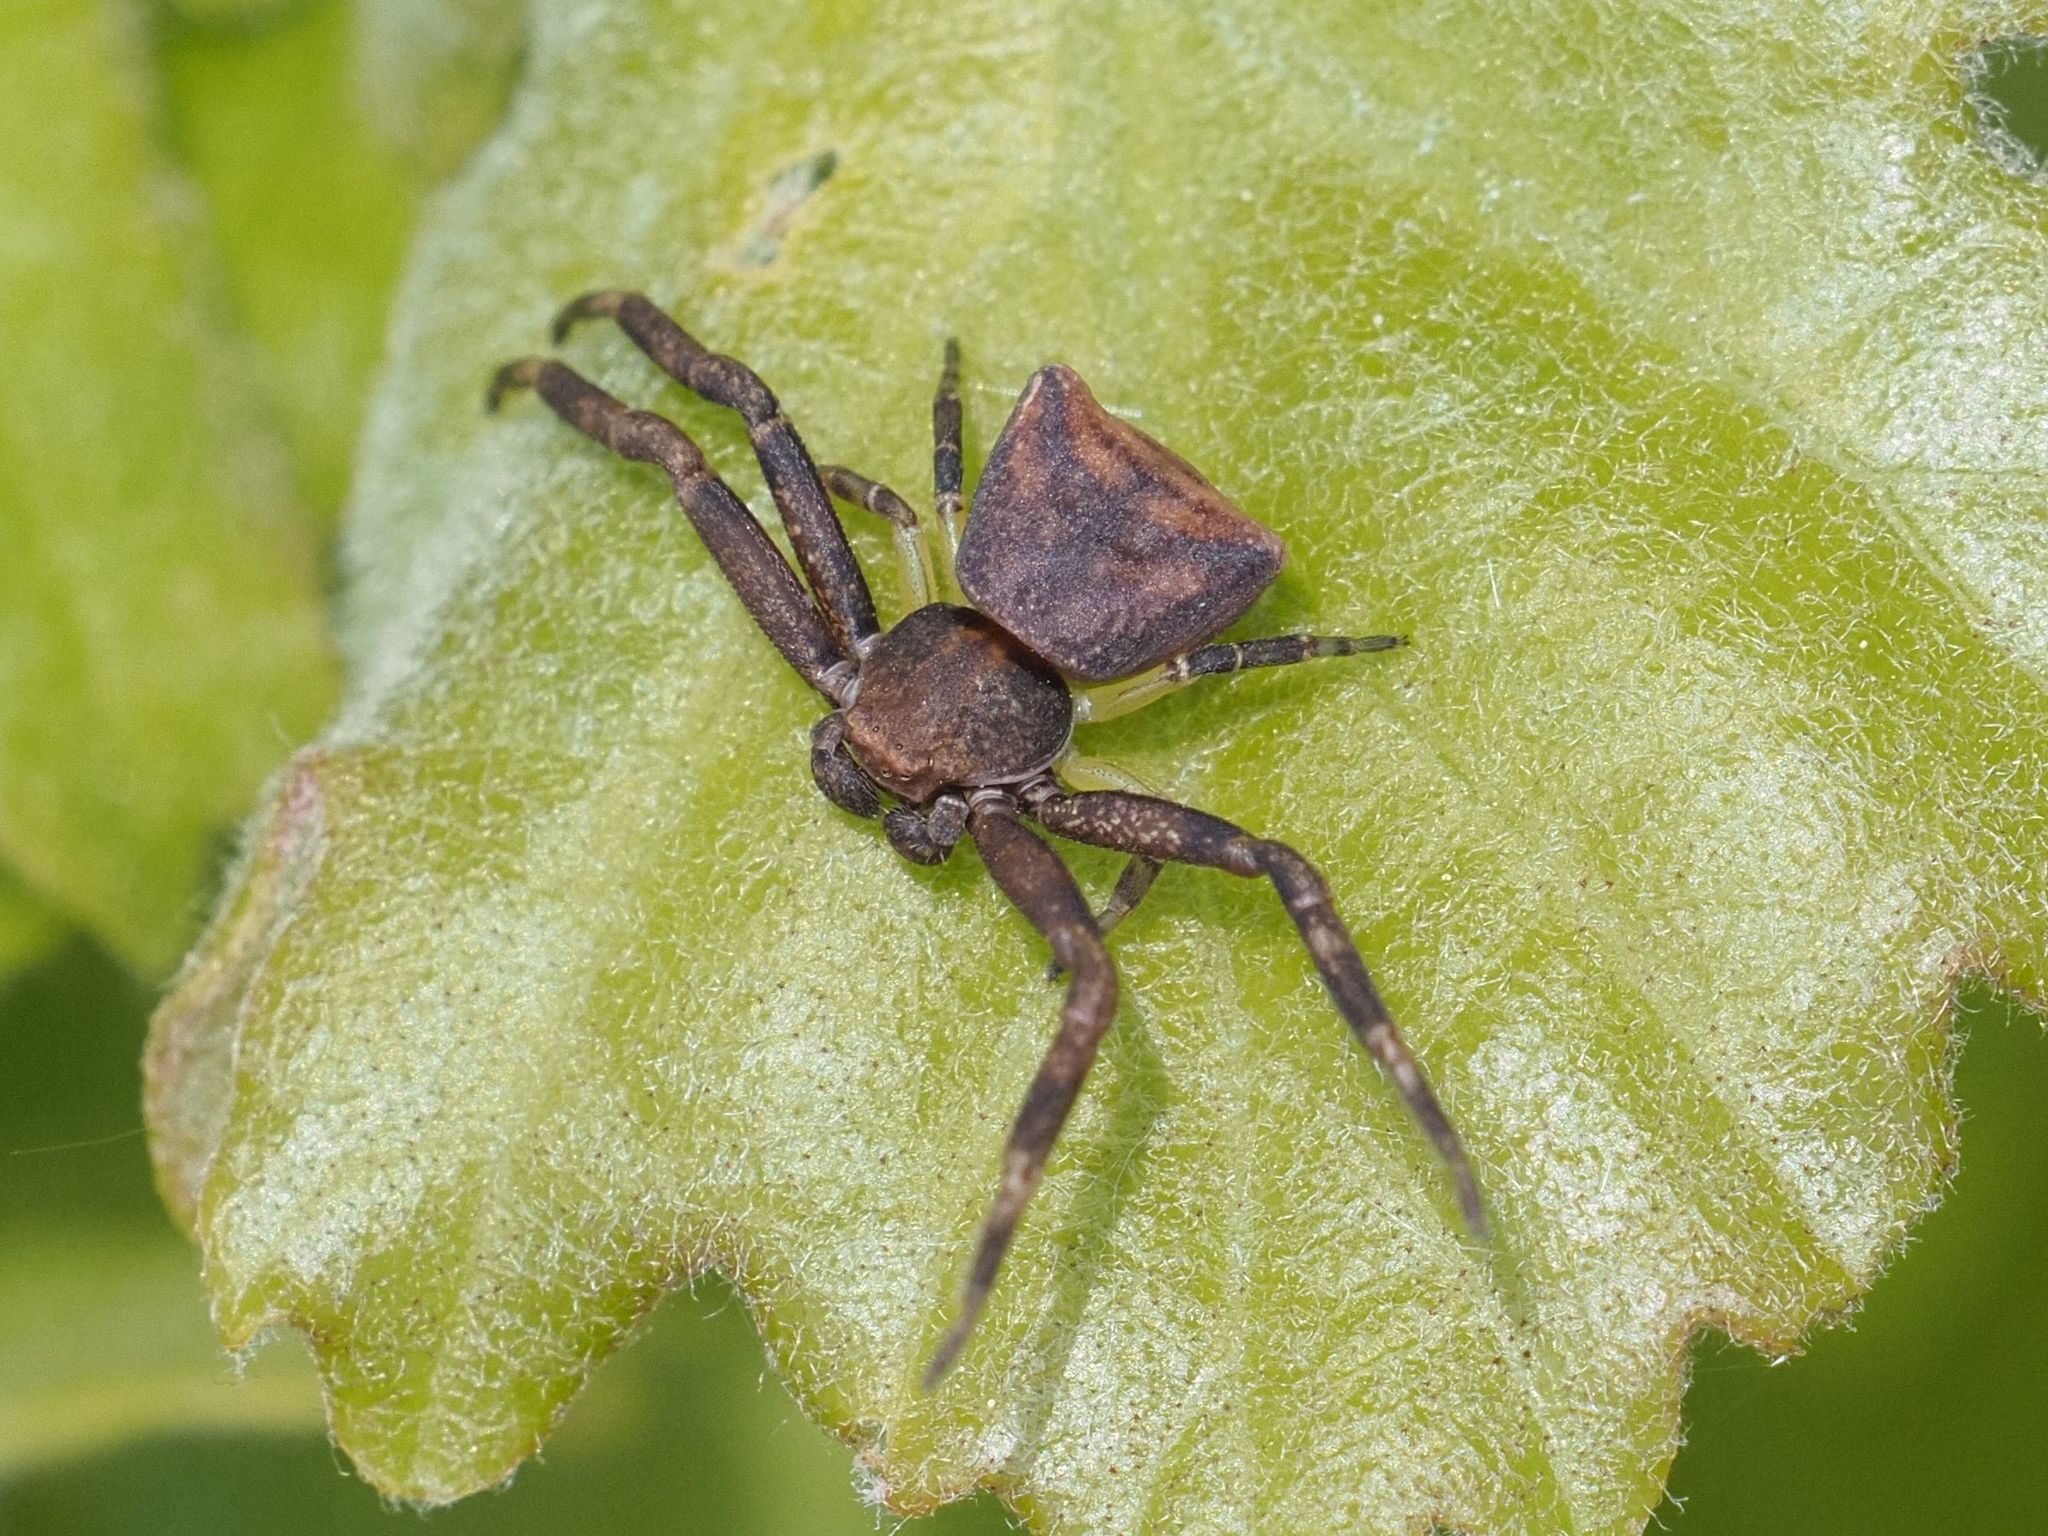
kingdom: Animalia
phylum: Arthropoda
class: Arachnida
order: Araneae
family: Thomisidae
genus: Pistius
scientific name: Pistius truncatus
